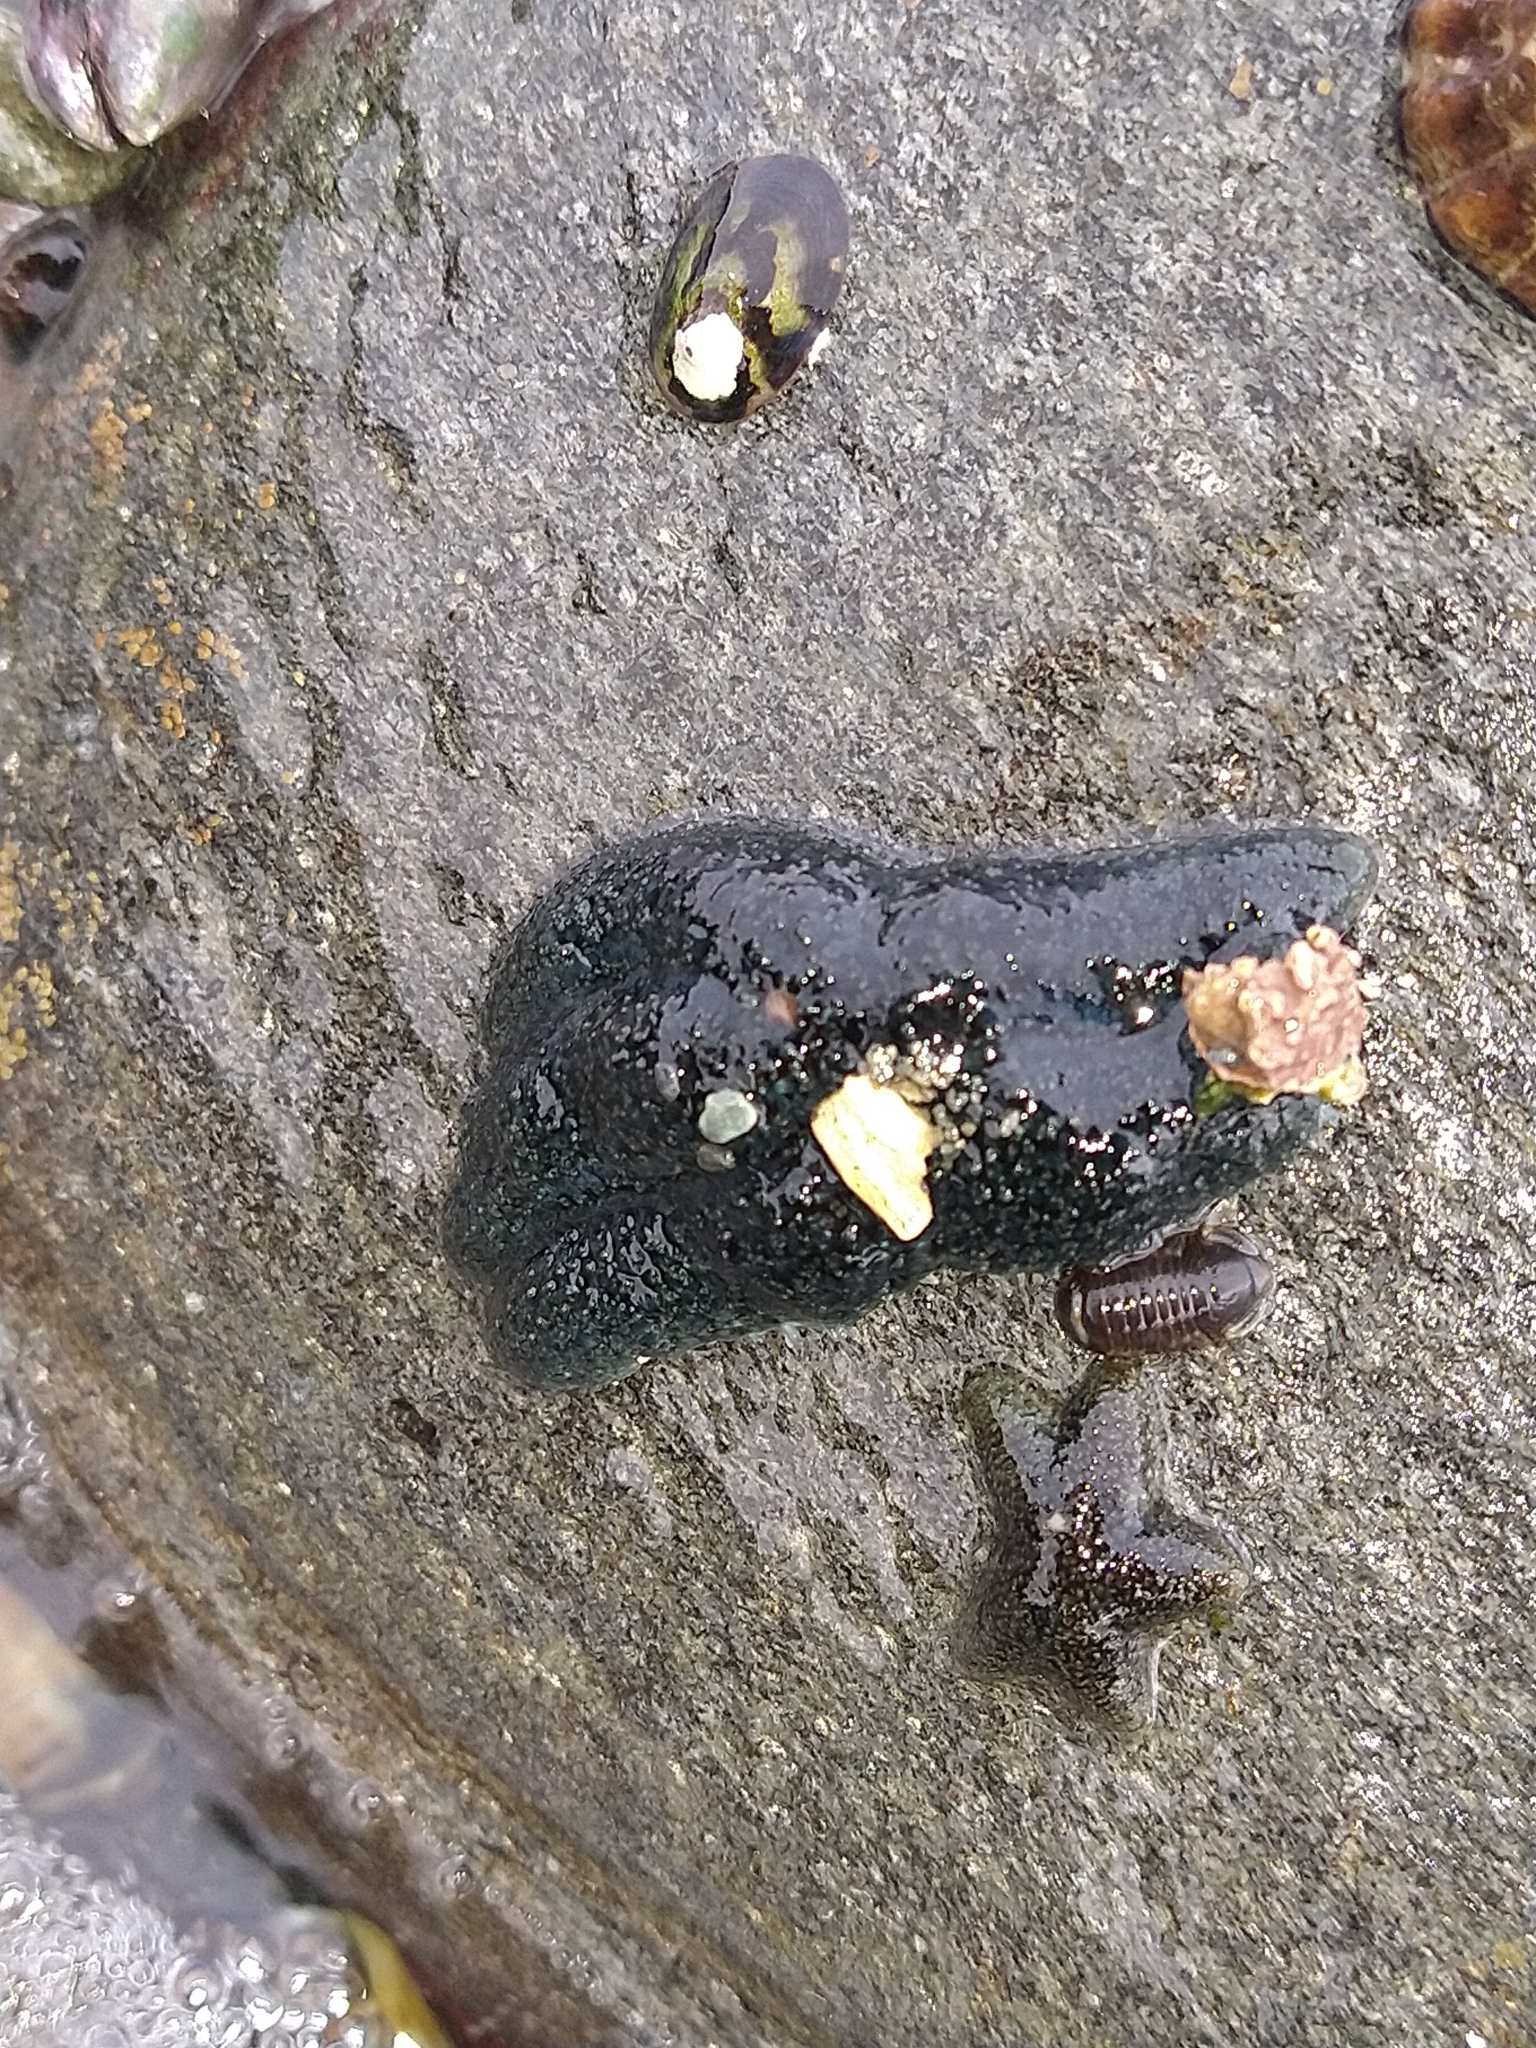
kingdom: Animalia
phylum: Echinodermata
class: Asteroidea
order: Forcipulatida
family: Asteriidae
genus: Anasterias
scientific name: Anasterias antarctica
